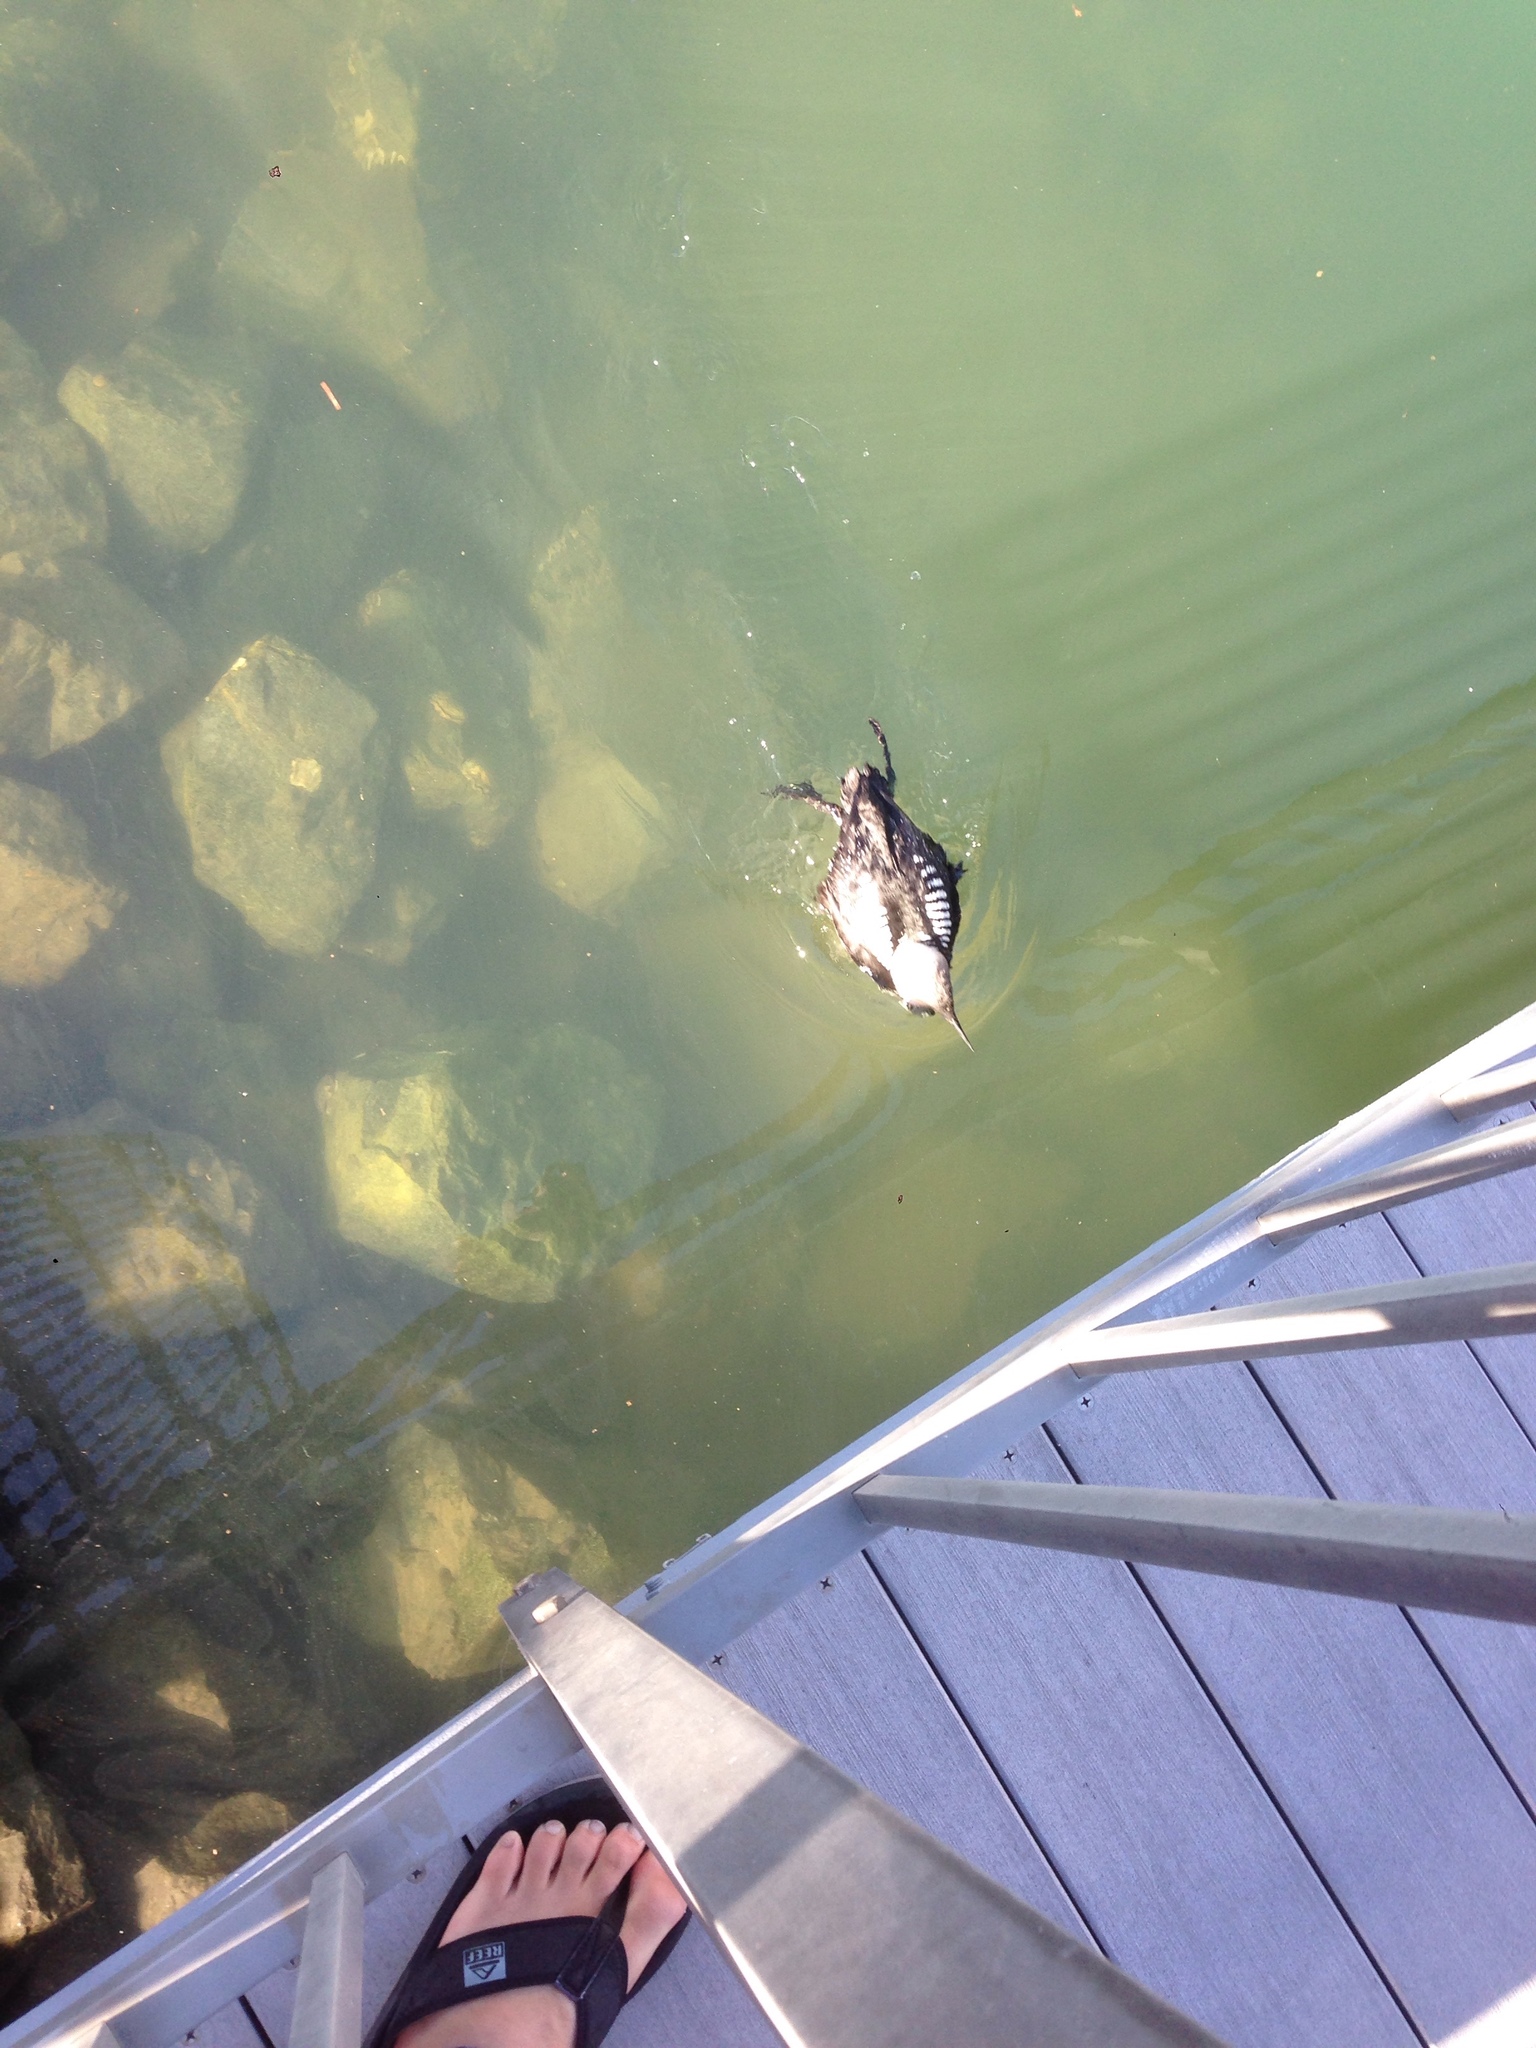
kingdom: Animalia
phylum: Chordata
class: Aves
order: Gaviiformes
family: Gaviidae
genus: Gavia
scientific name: Gavia pacifica
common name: Pacific loon
